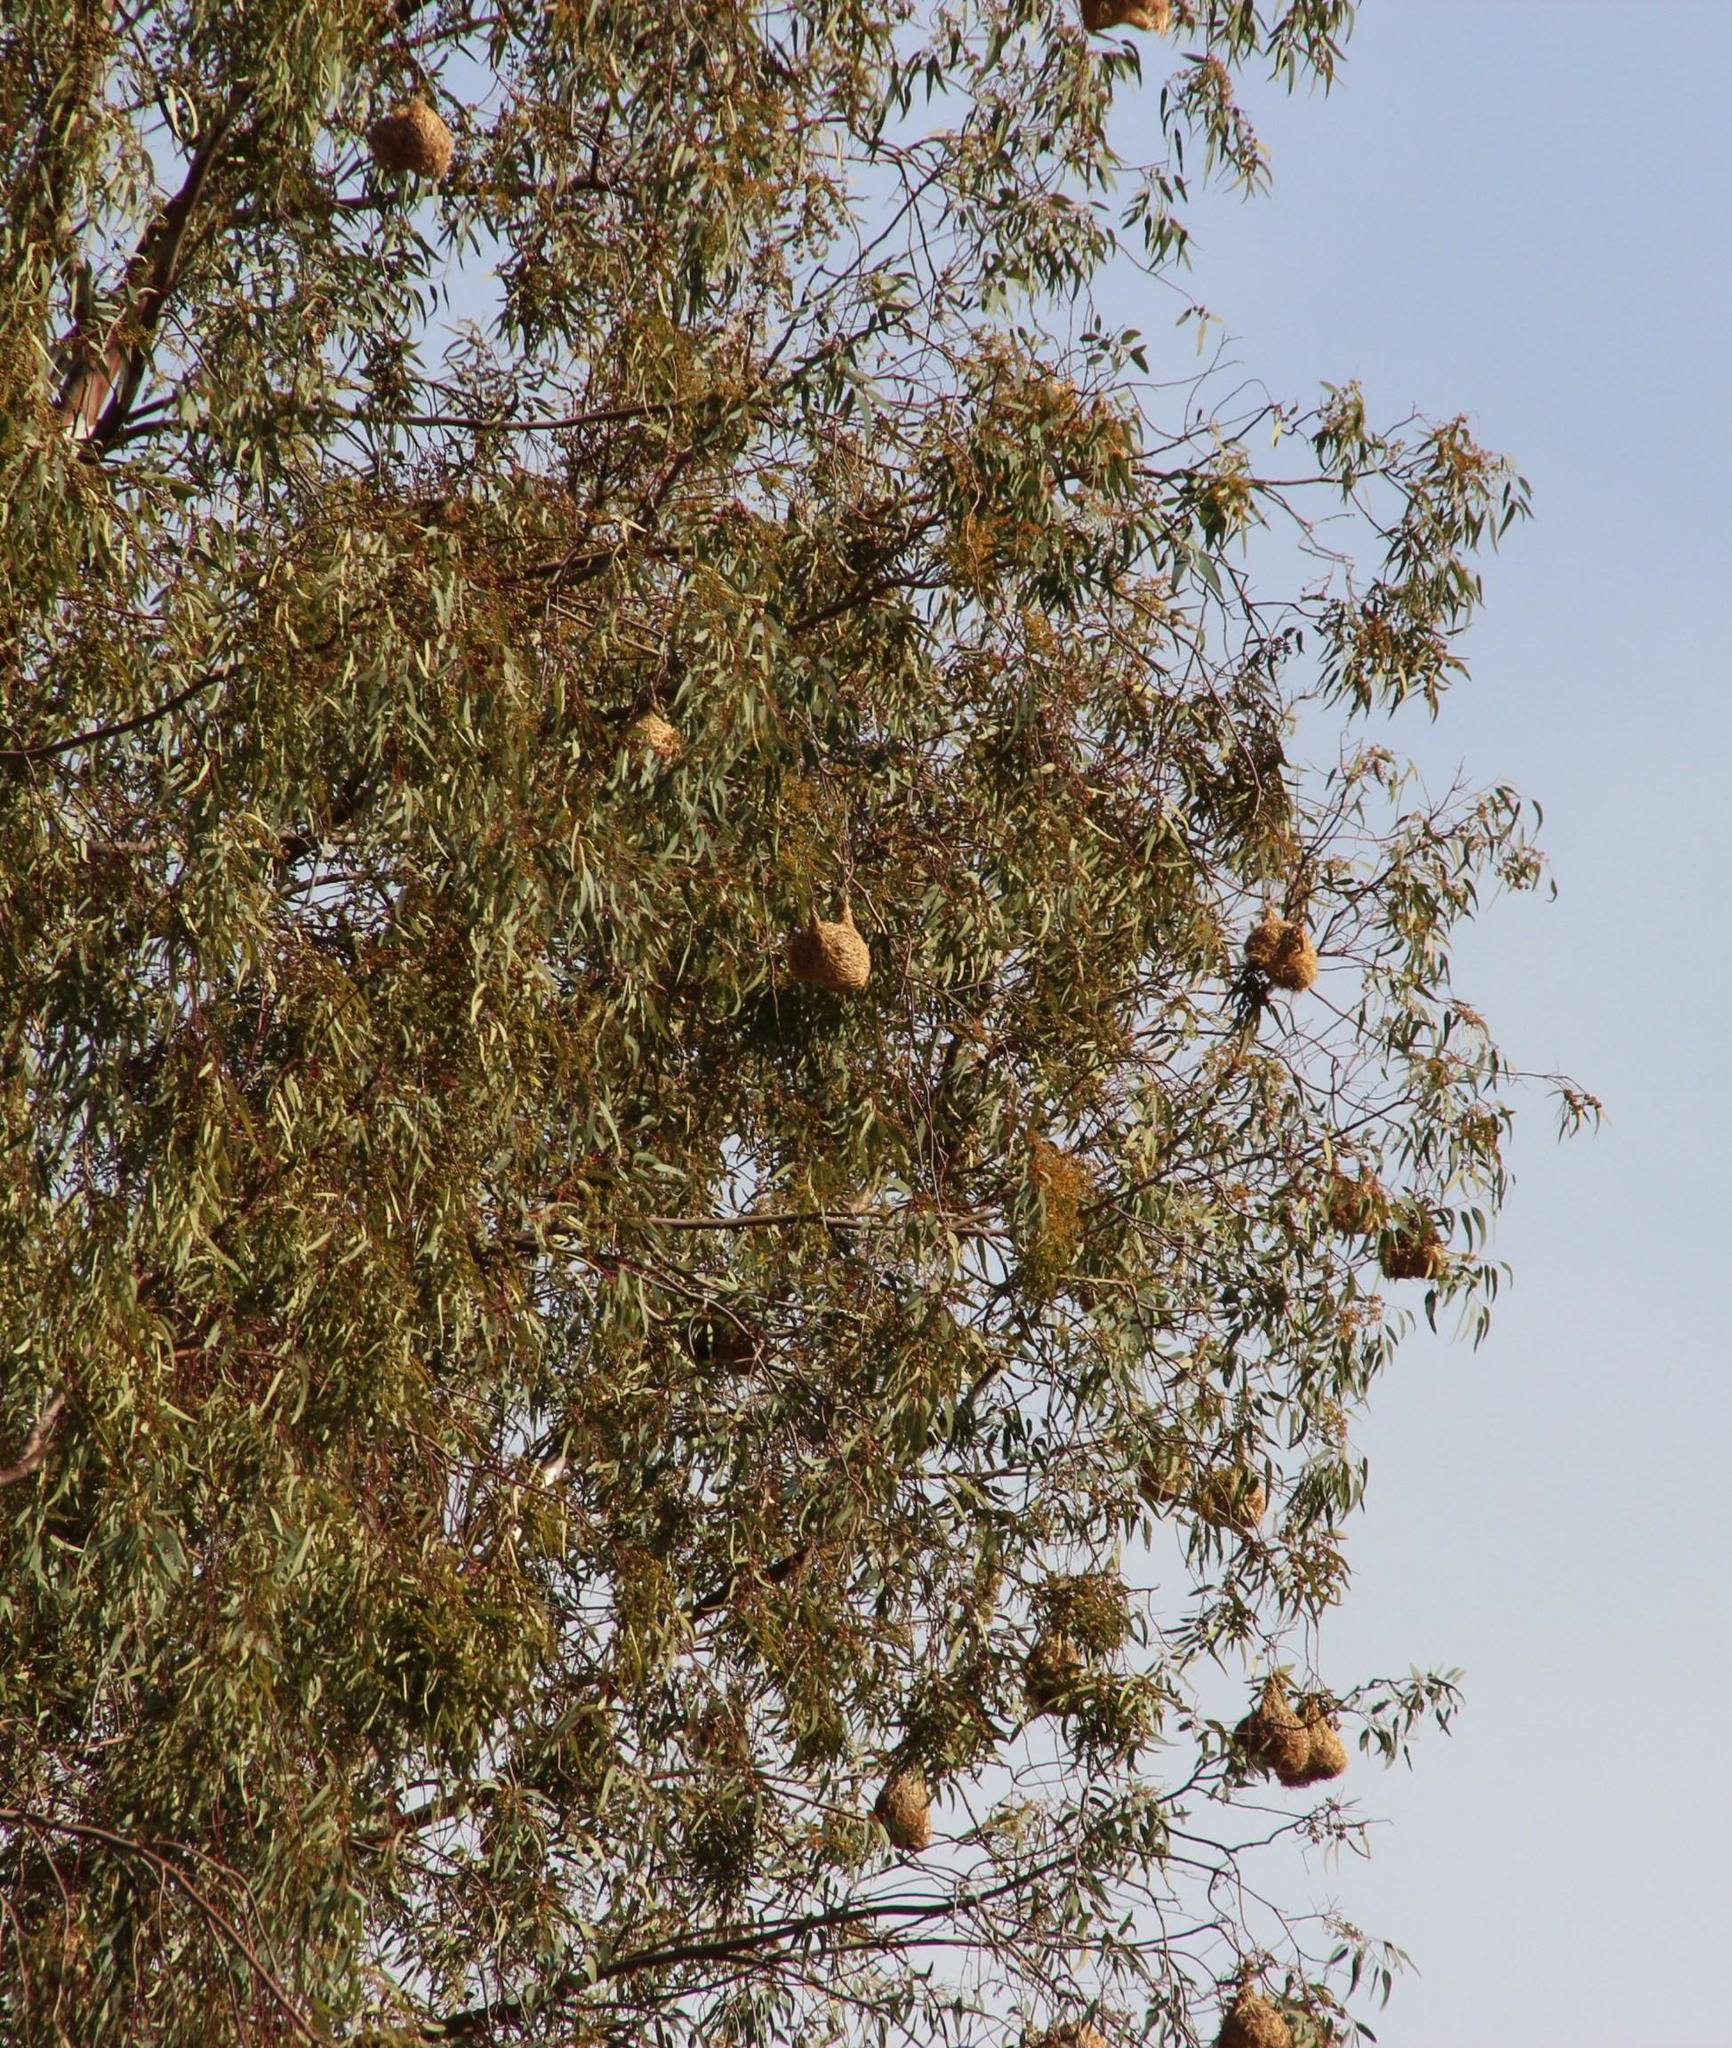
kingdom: Animalia
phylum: Chordata
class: Aves
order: Passeriformes
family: Ploceidae
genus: Ploceus
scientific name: Ploceus capensis
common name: Cape weaver
